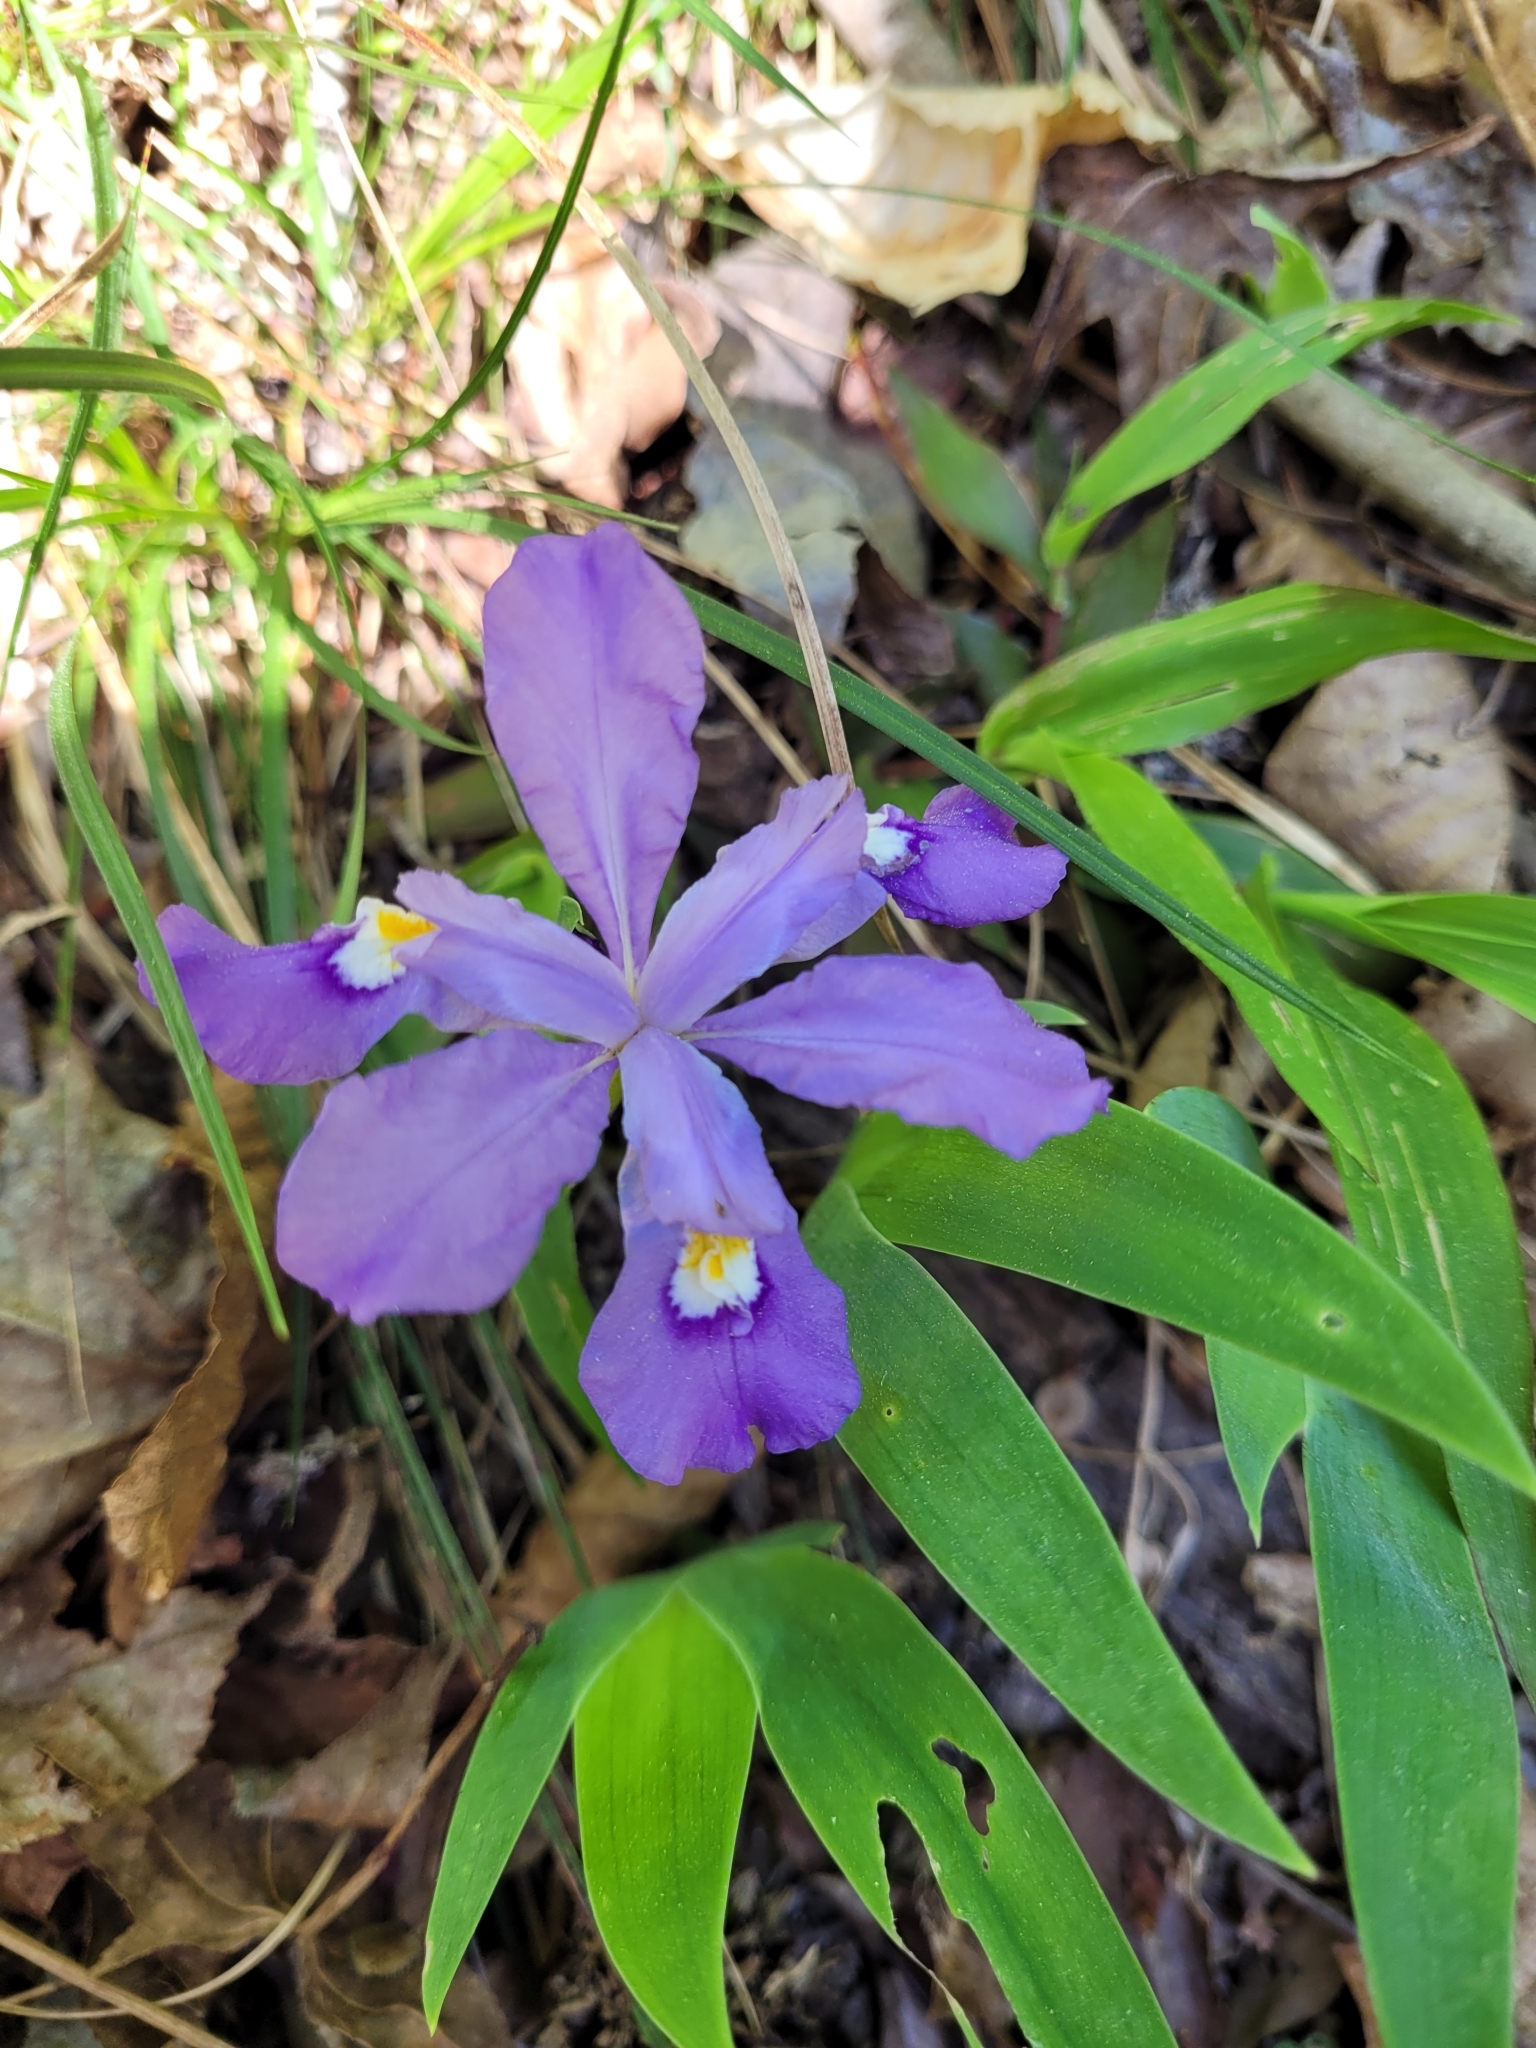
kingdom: Plantae
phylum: Tracheophyta
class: Liliopsida
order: Asparagales
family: Iridaceae
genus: Iris
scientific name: Iris cristata
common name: Crested iris
